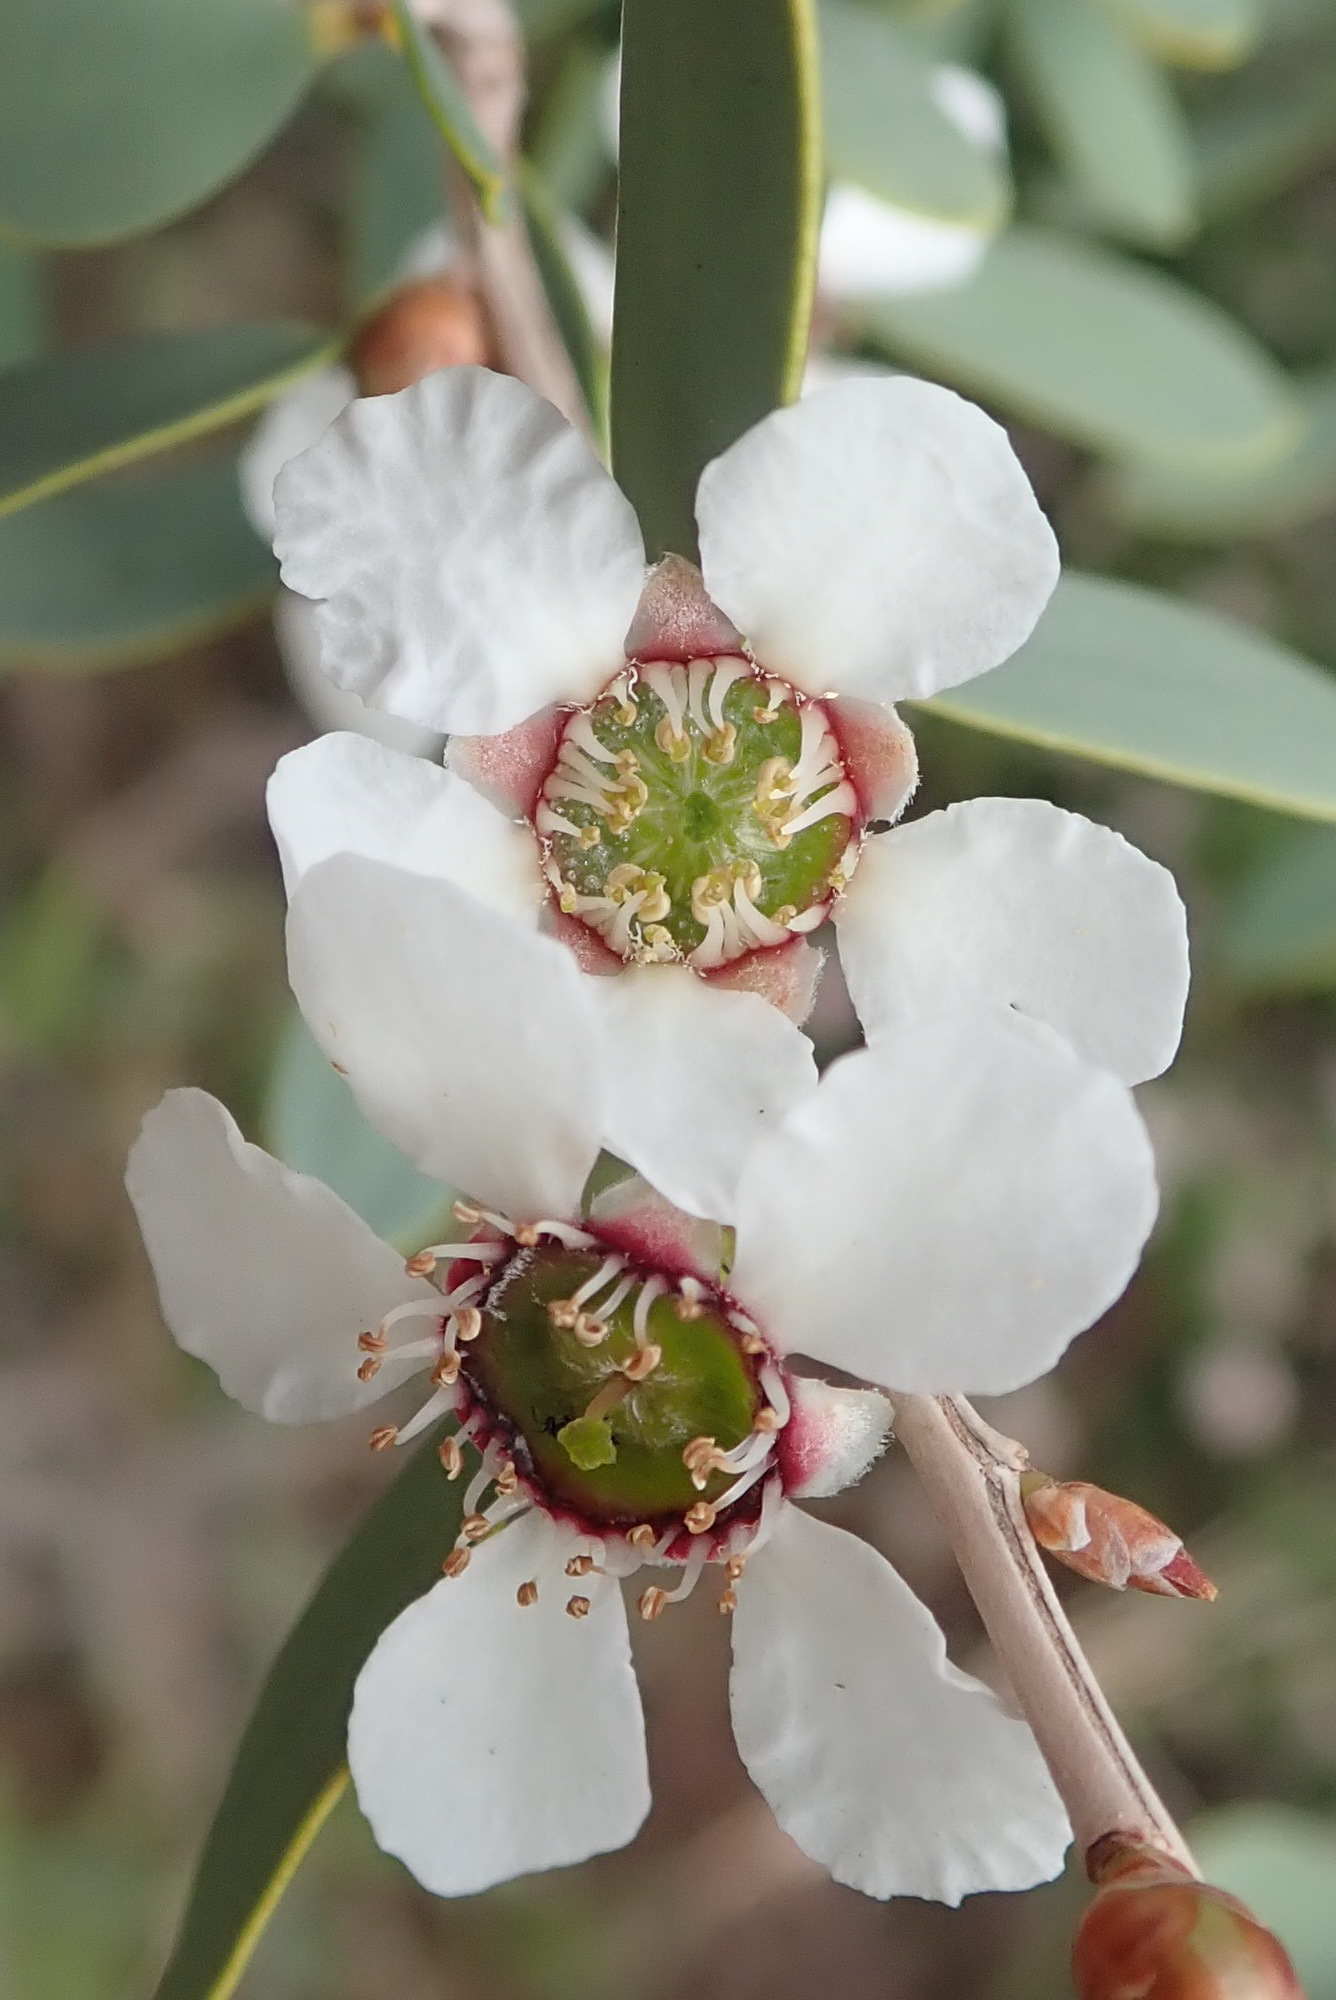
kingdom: Plantae
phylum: Tracheophyta
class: Magnoliopsida
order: Myrtales
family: Myrtaceae
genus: Leptospermum
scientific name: Leptospermum laevigatum
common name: Australian teatree
